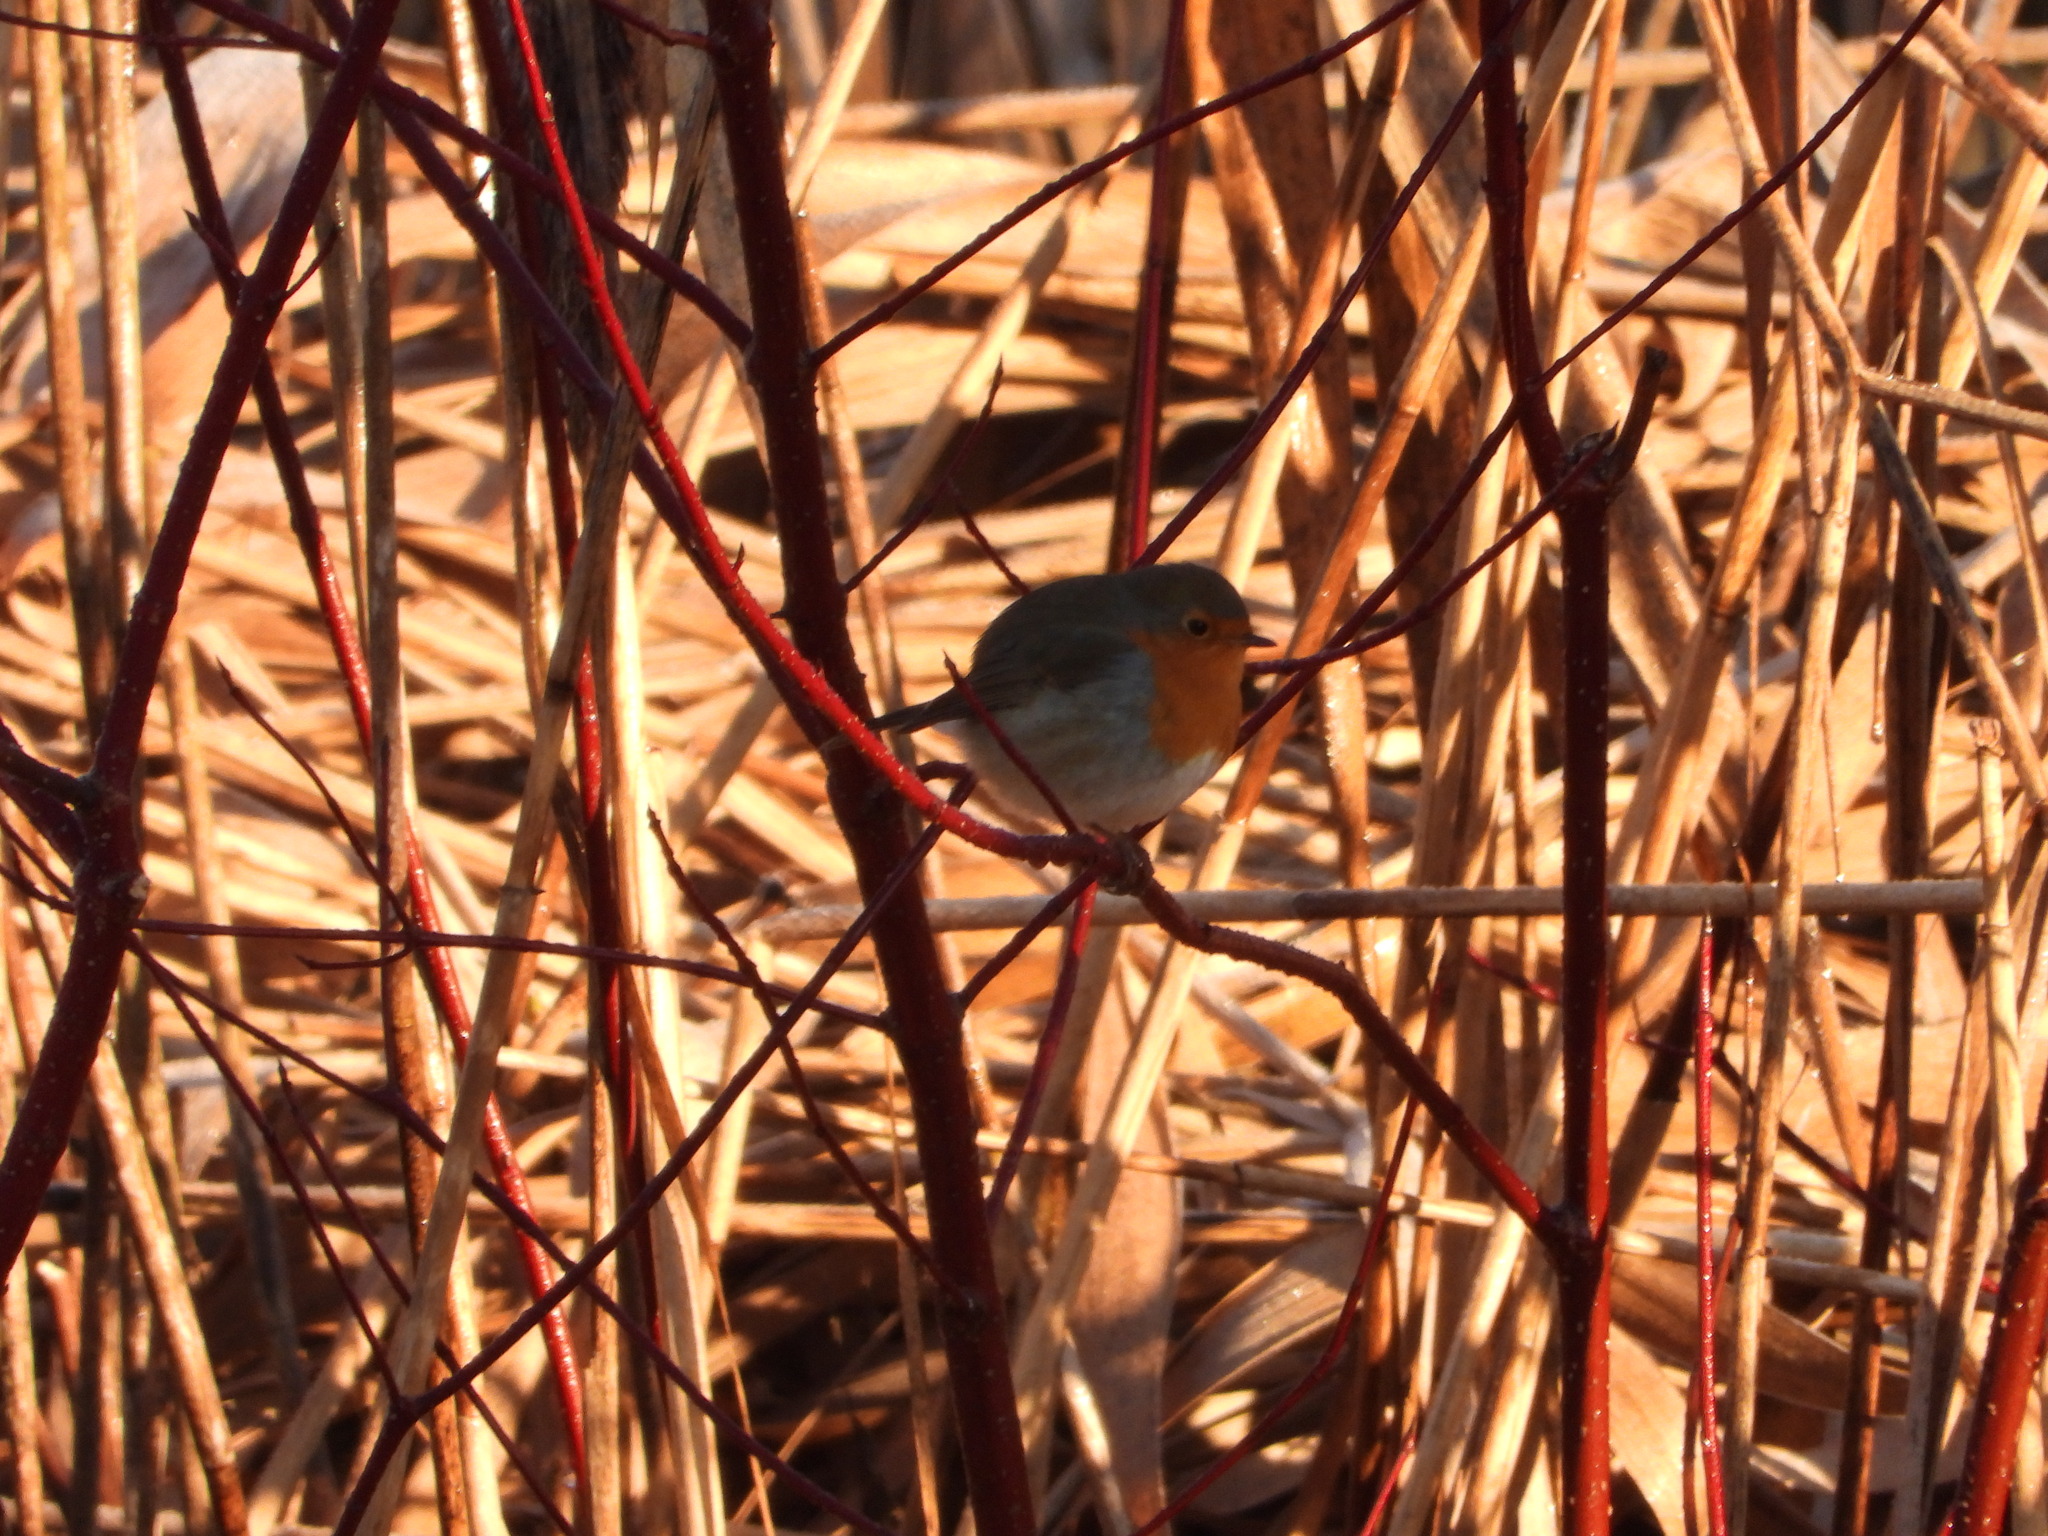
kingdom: Animalia
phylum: Chordata
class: Aves
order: Passeriformes
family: Muscicapidae
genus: Erithacus
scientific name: Erithacus rubecula
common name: European robin
